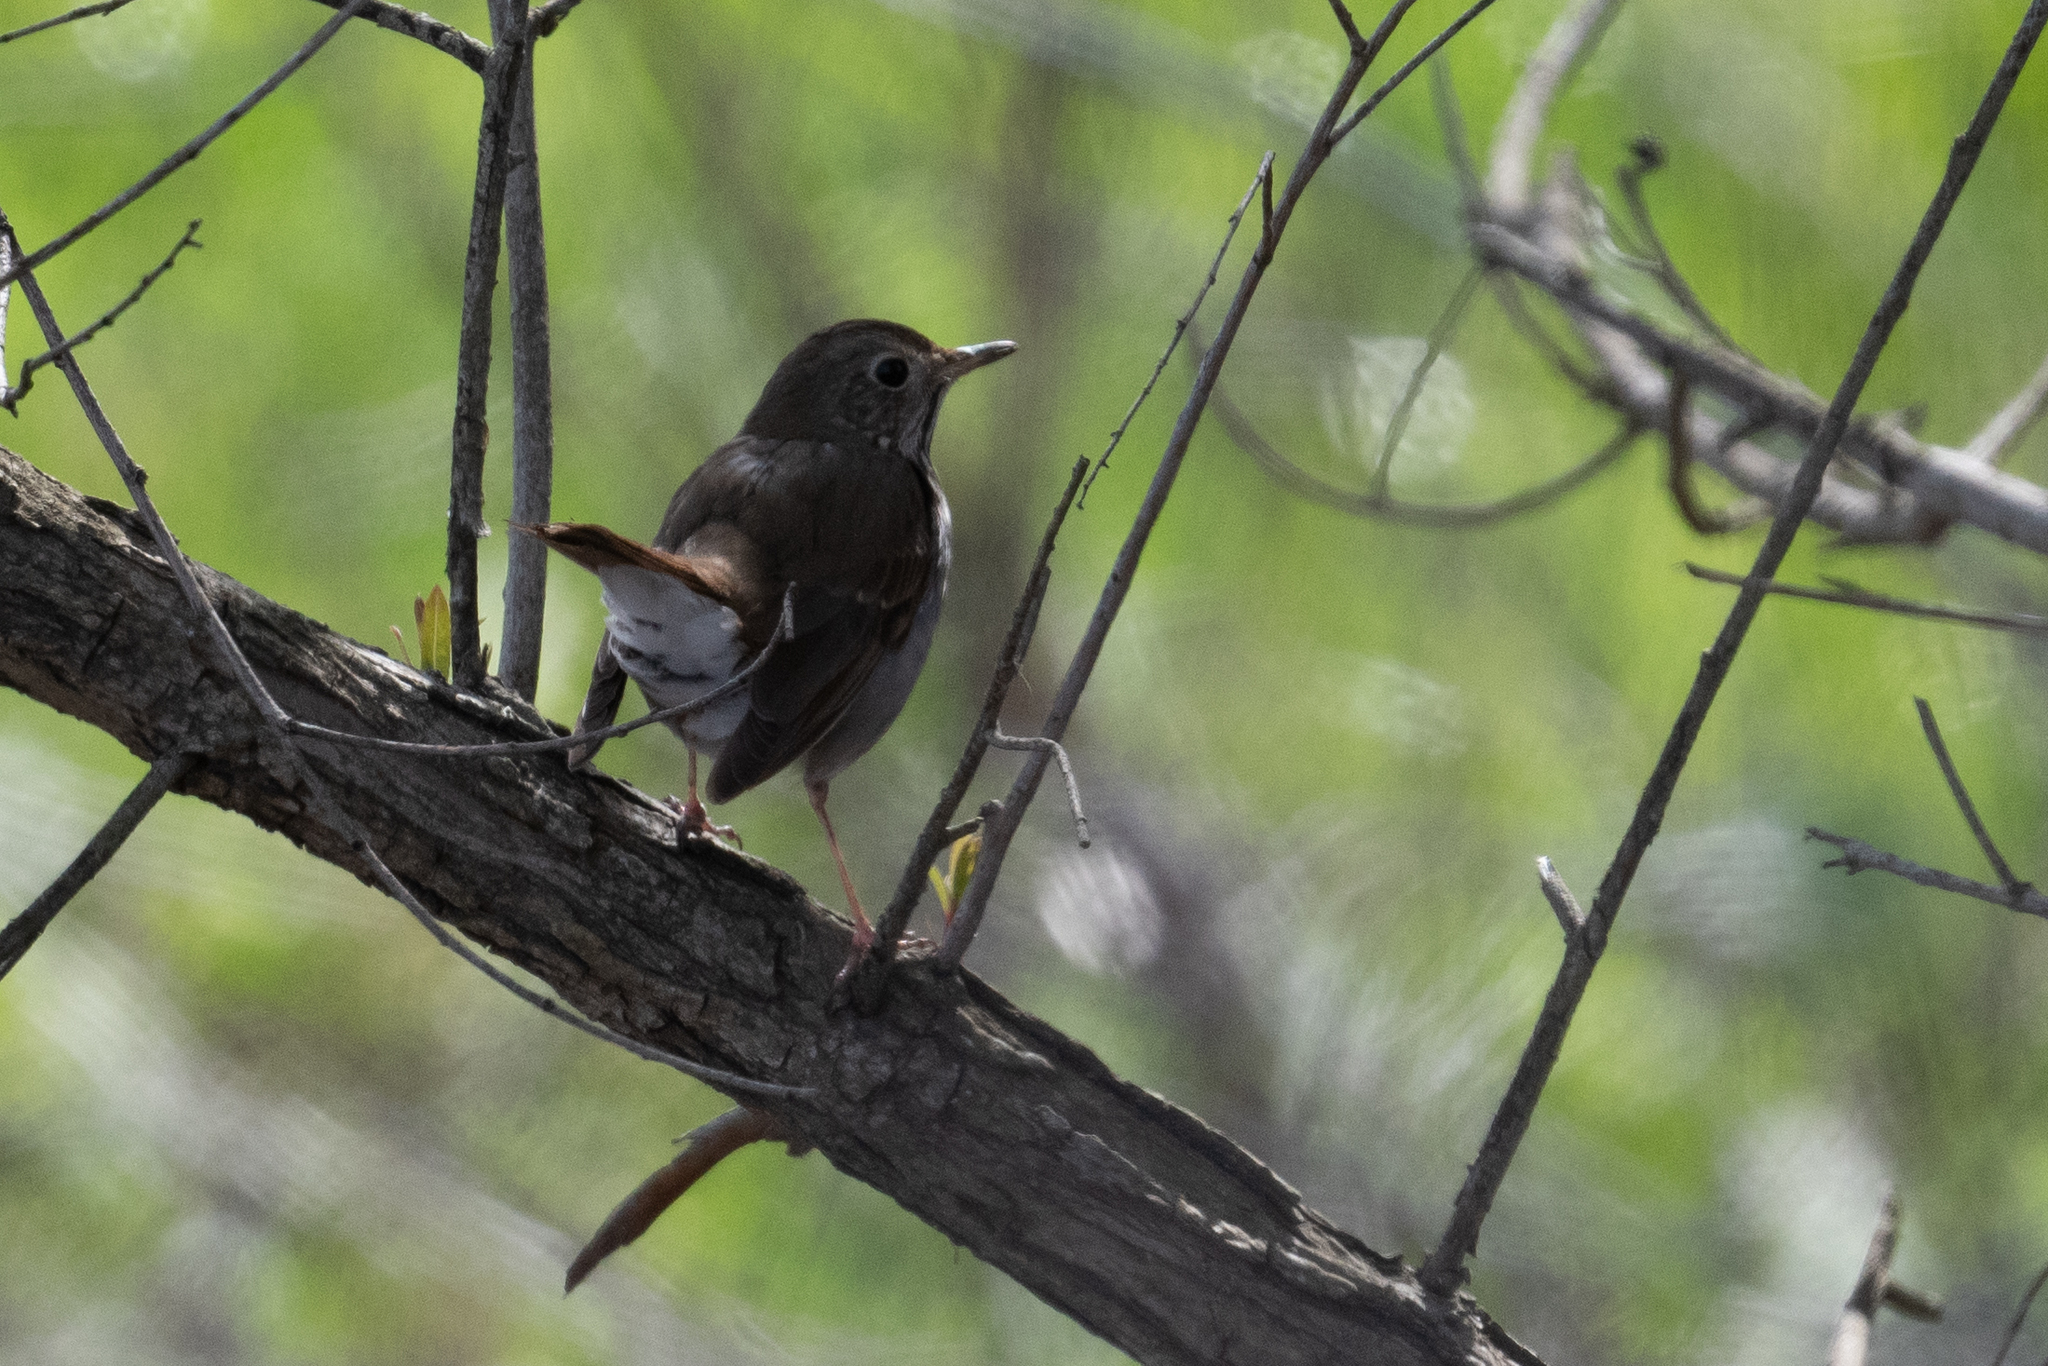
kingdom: Animalia
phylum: Chordata
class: Aves
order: Passeriformes
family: Turdidae
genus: Catharus
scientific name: Catharus guttatus
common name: Hermit thrush
